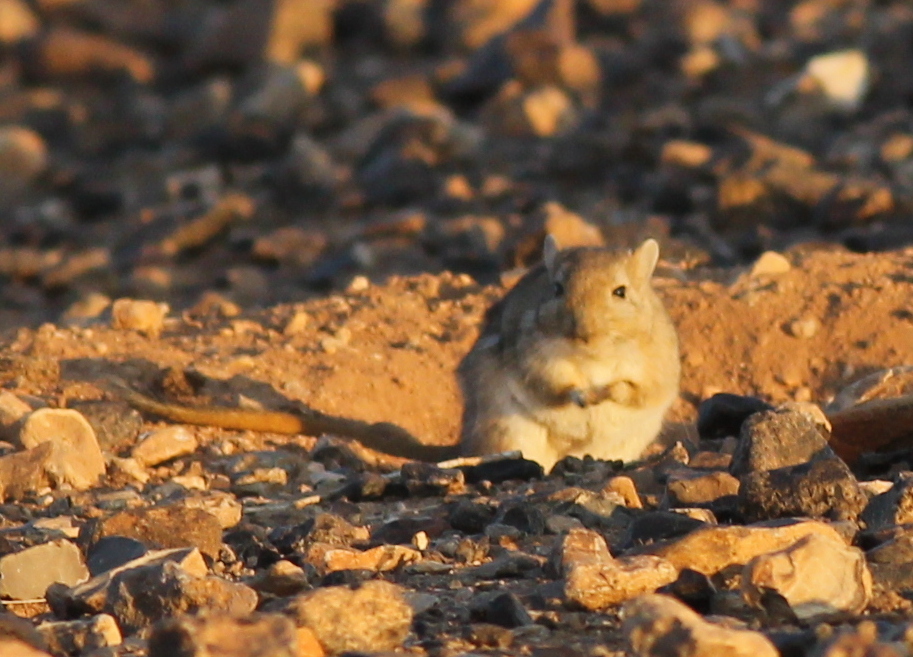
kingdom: Animalia
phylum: Chordata
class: Mammalia
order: Rodentia
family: Muridae
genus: Meriones
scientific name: Meriones libycus
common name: Libyan jird
